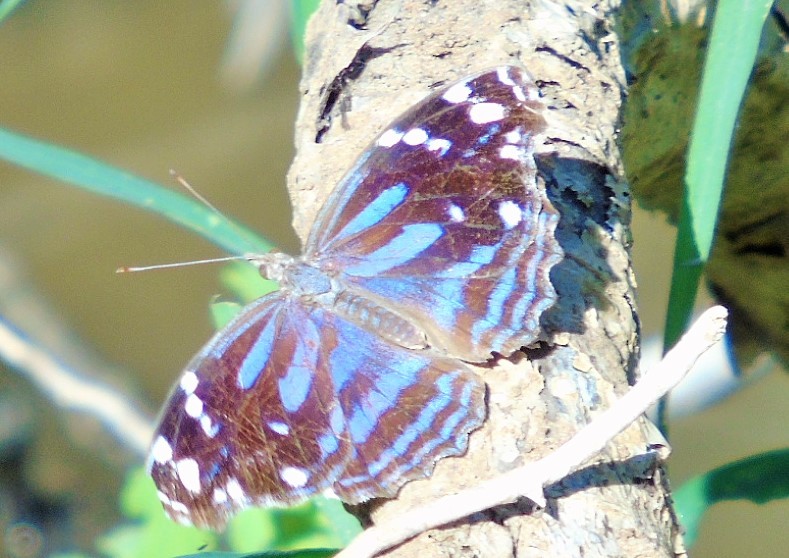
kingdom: Animalia
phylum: Arthropoda
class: Insecta
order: Lepidoptera
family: Nymphalidae
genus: Myscelia
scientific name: Myscelia cyananthe
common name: Blackened bluewing
